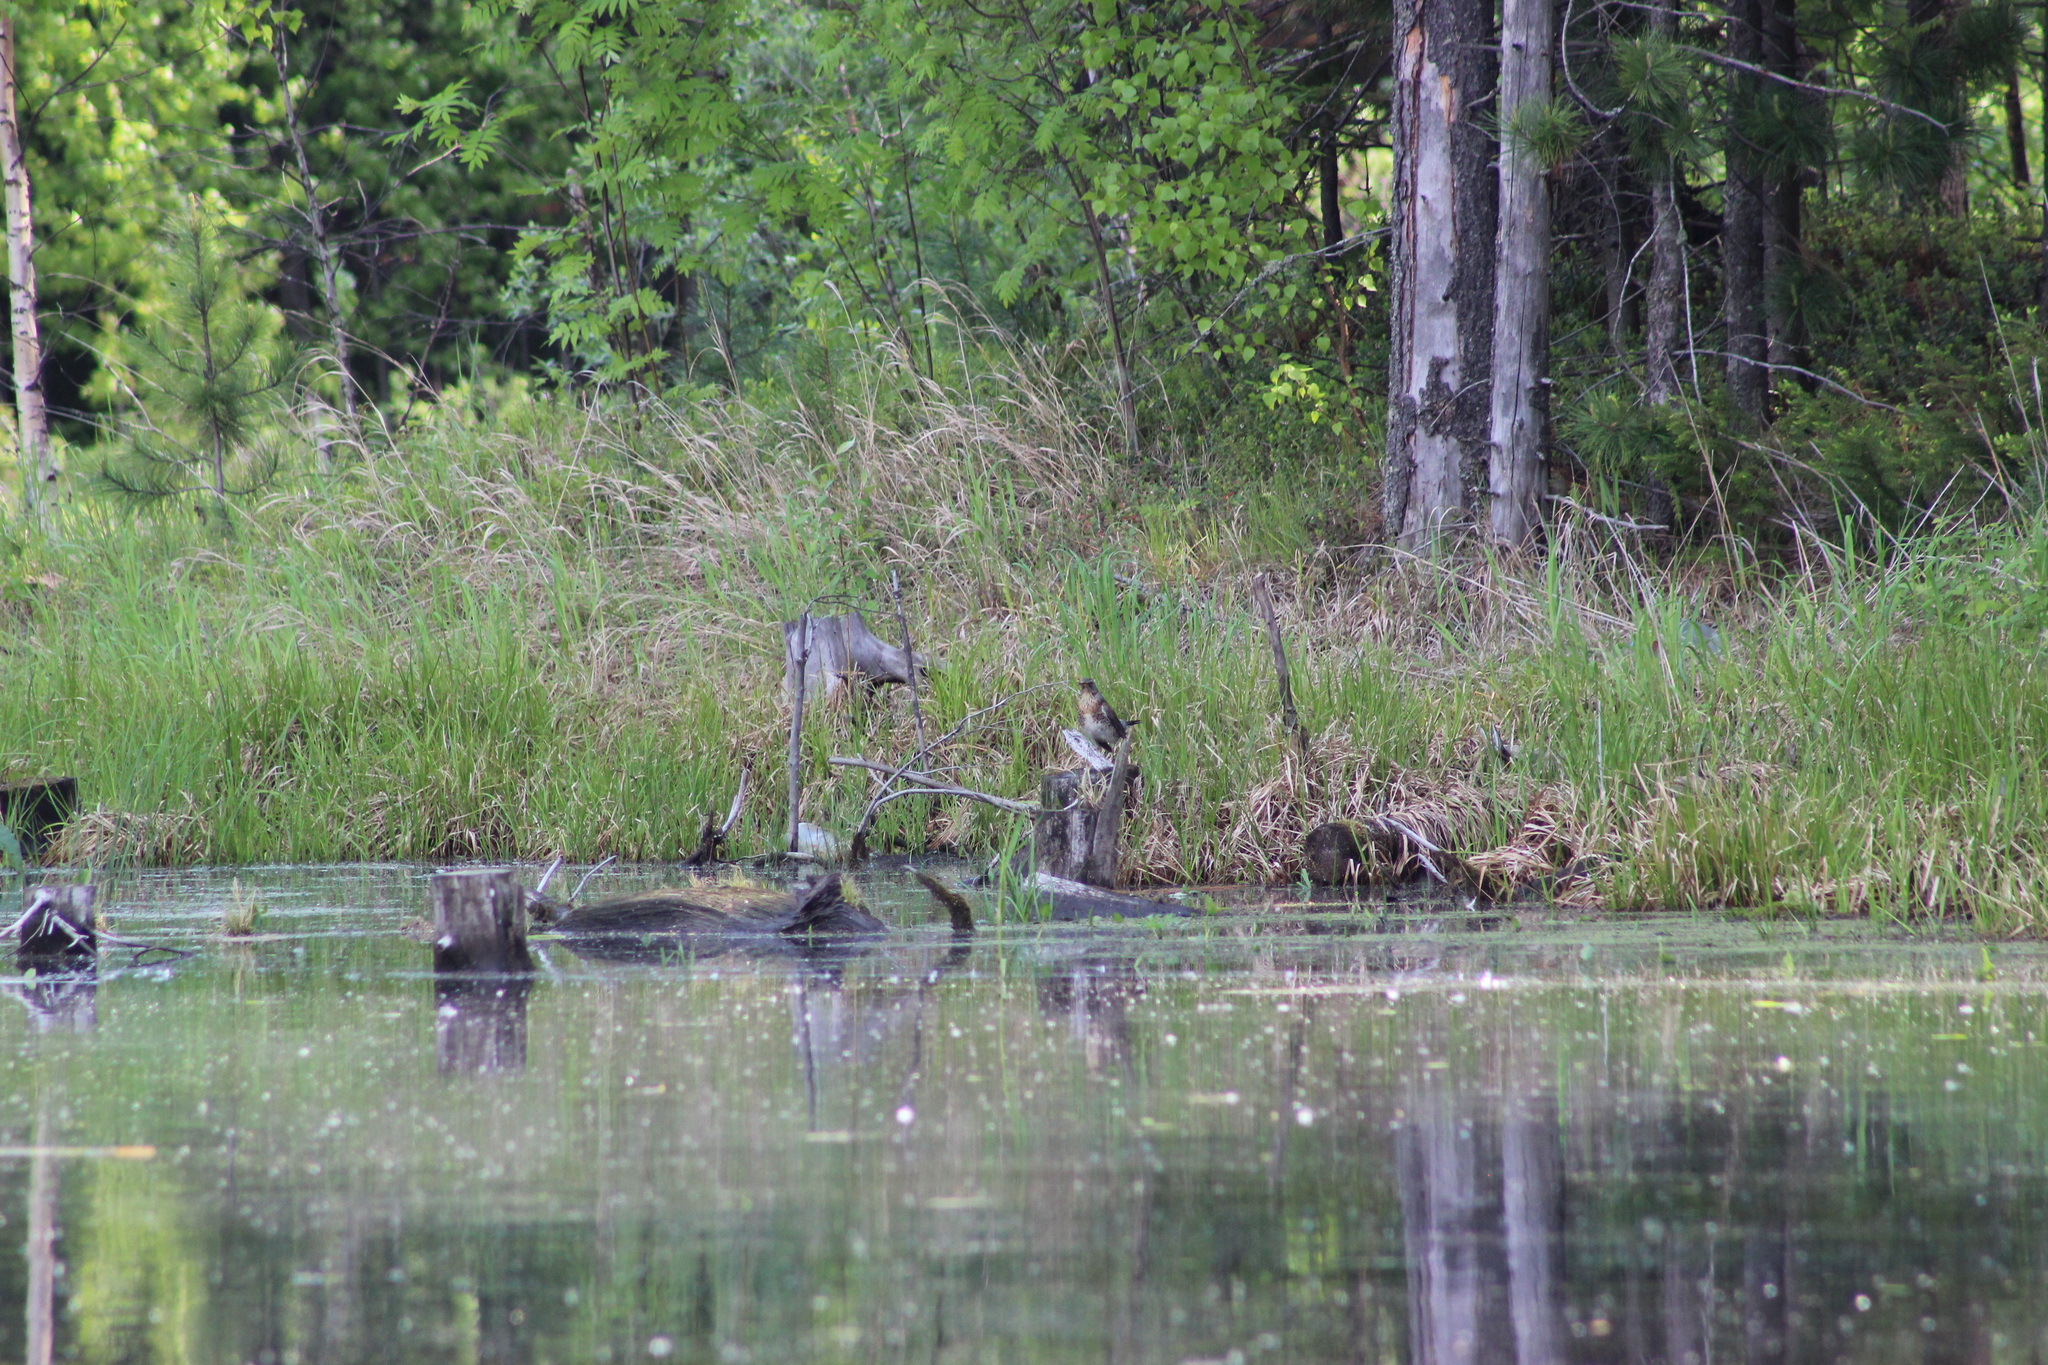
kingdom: Animalia
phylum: Chordata
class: Aves
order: Passeriformes
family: Turdidae
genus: Turdus
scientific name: Turdus pilaris
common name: Fieldfare
